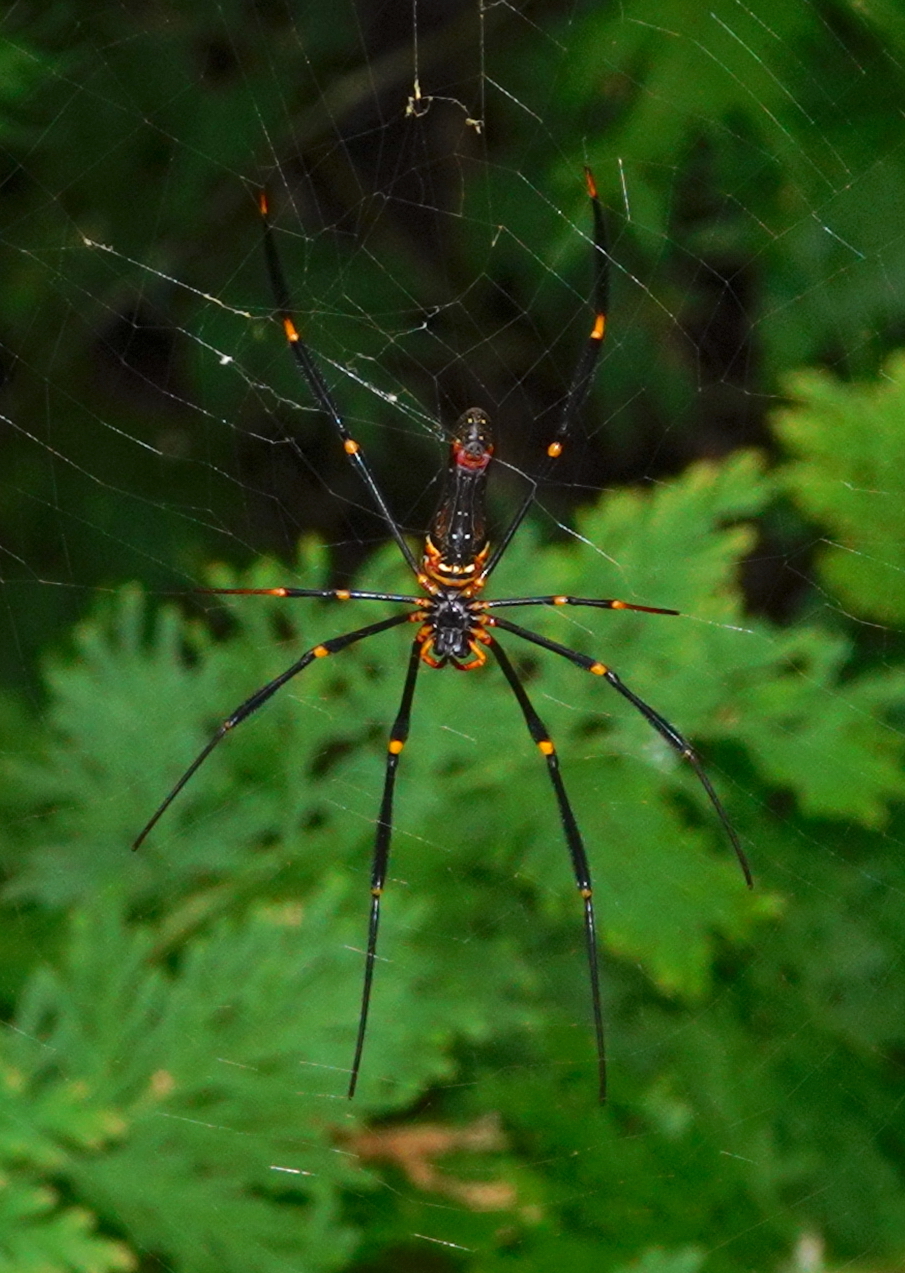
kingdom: Animalia
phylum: Arthropoda
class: Arachnida
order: Araneae
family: Araneidae
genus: Nephila
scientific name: Nephila pilipes
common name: Giant golden orb weaver
